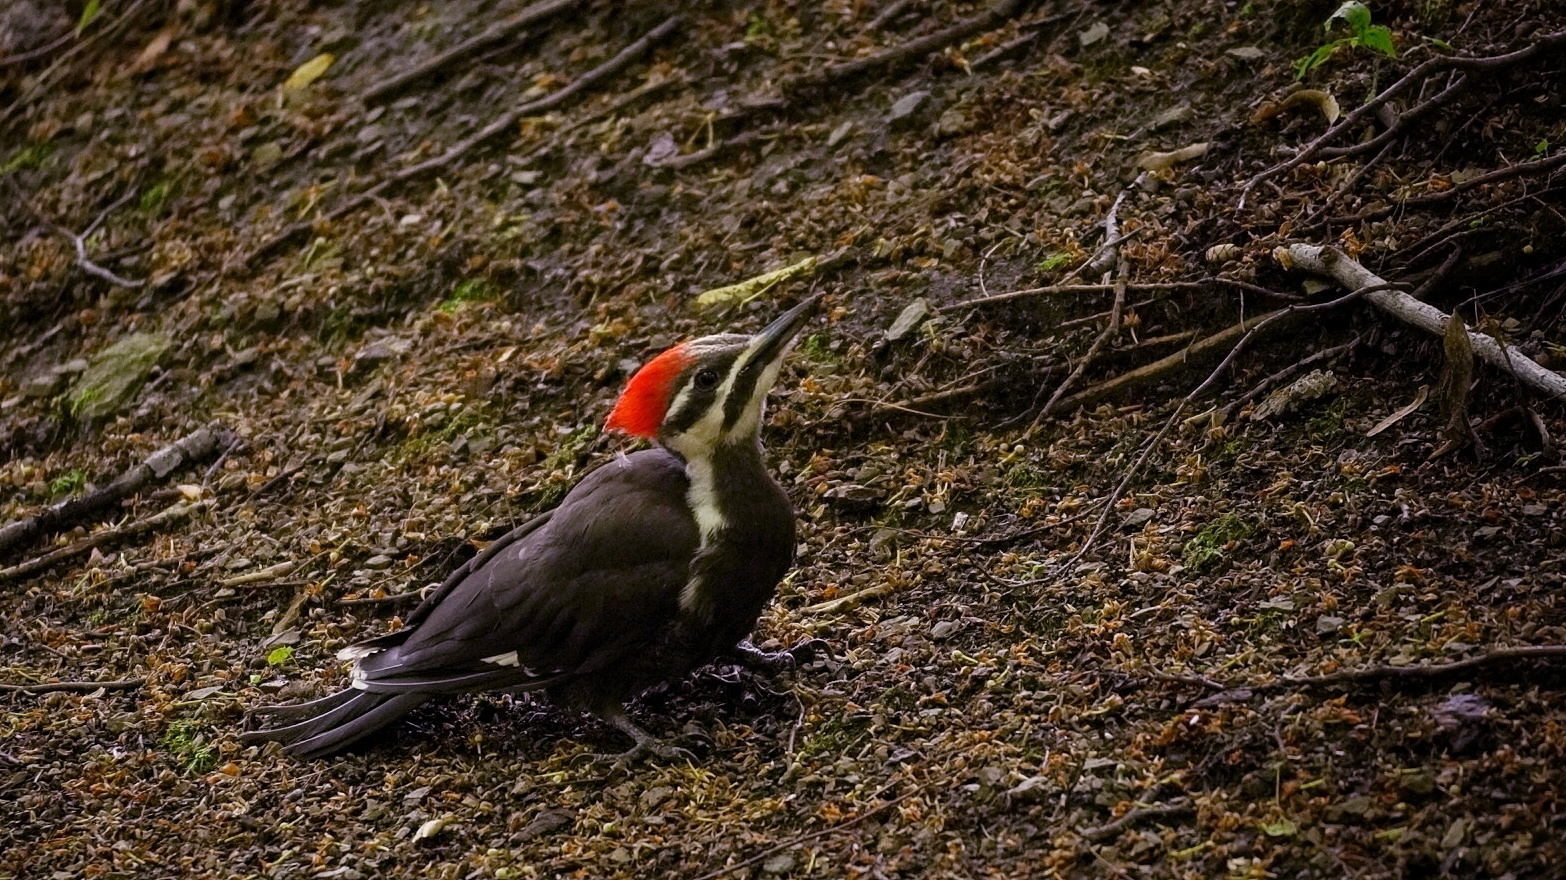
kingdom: Animalia
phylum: Chordata
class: Aves
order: Piciformes
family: Picidae
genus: Dryocopus
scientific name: Dryocopus pileatus
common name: Pileated woodpecker
